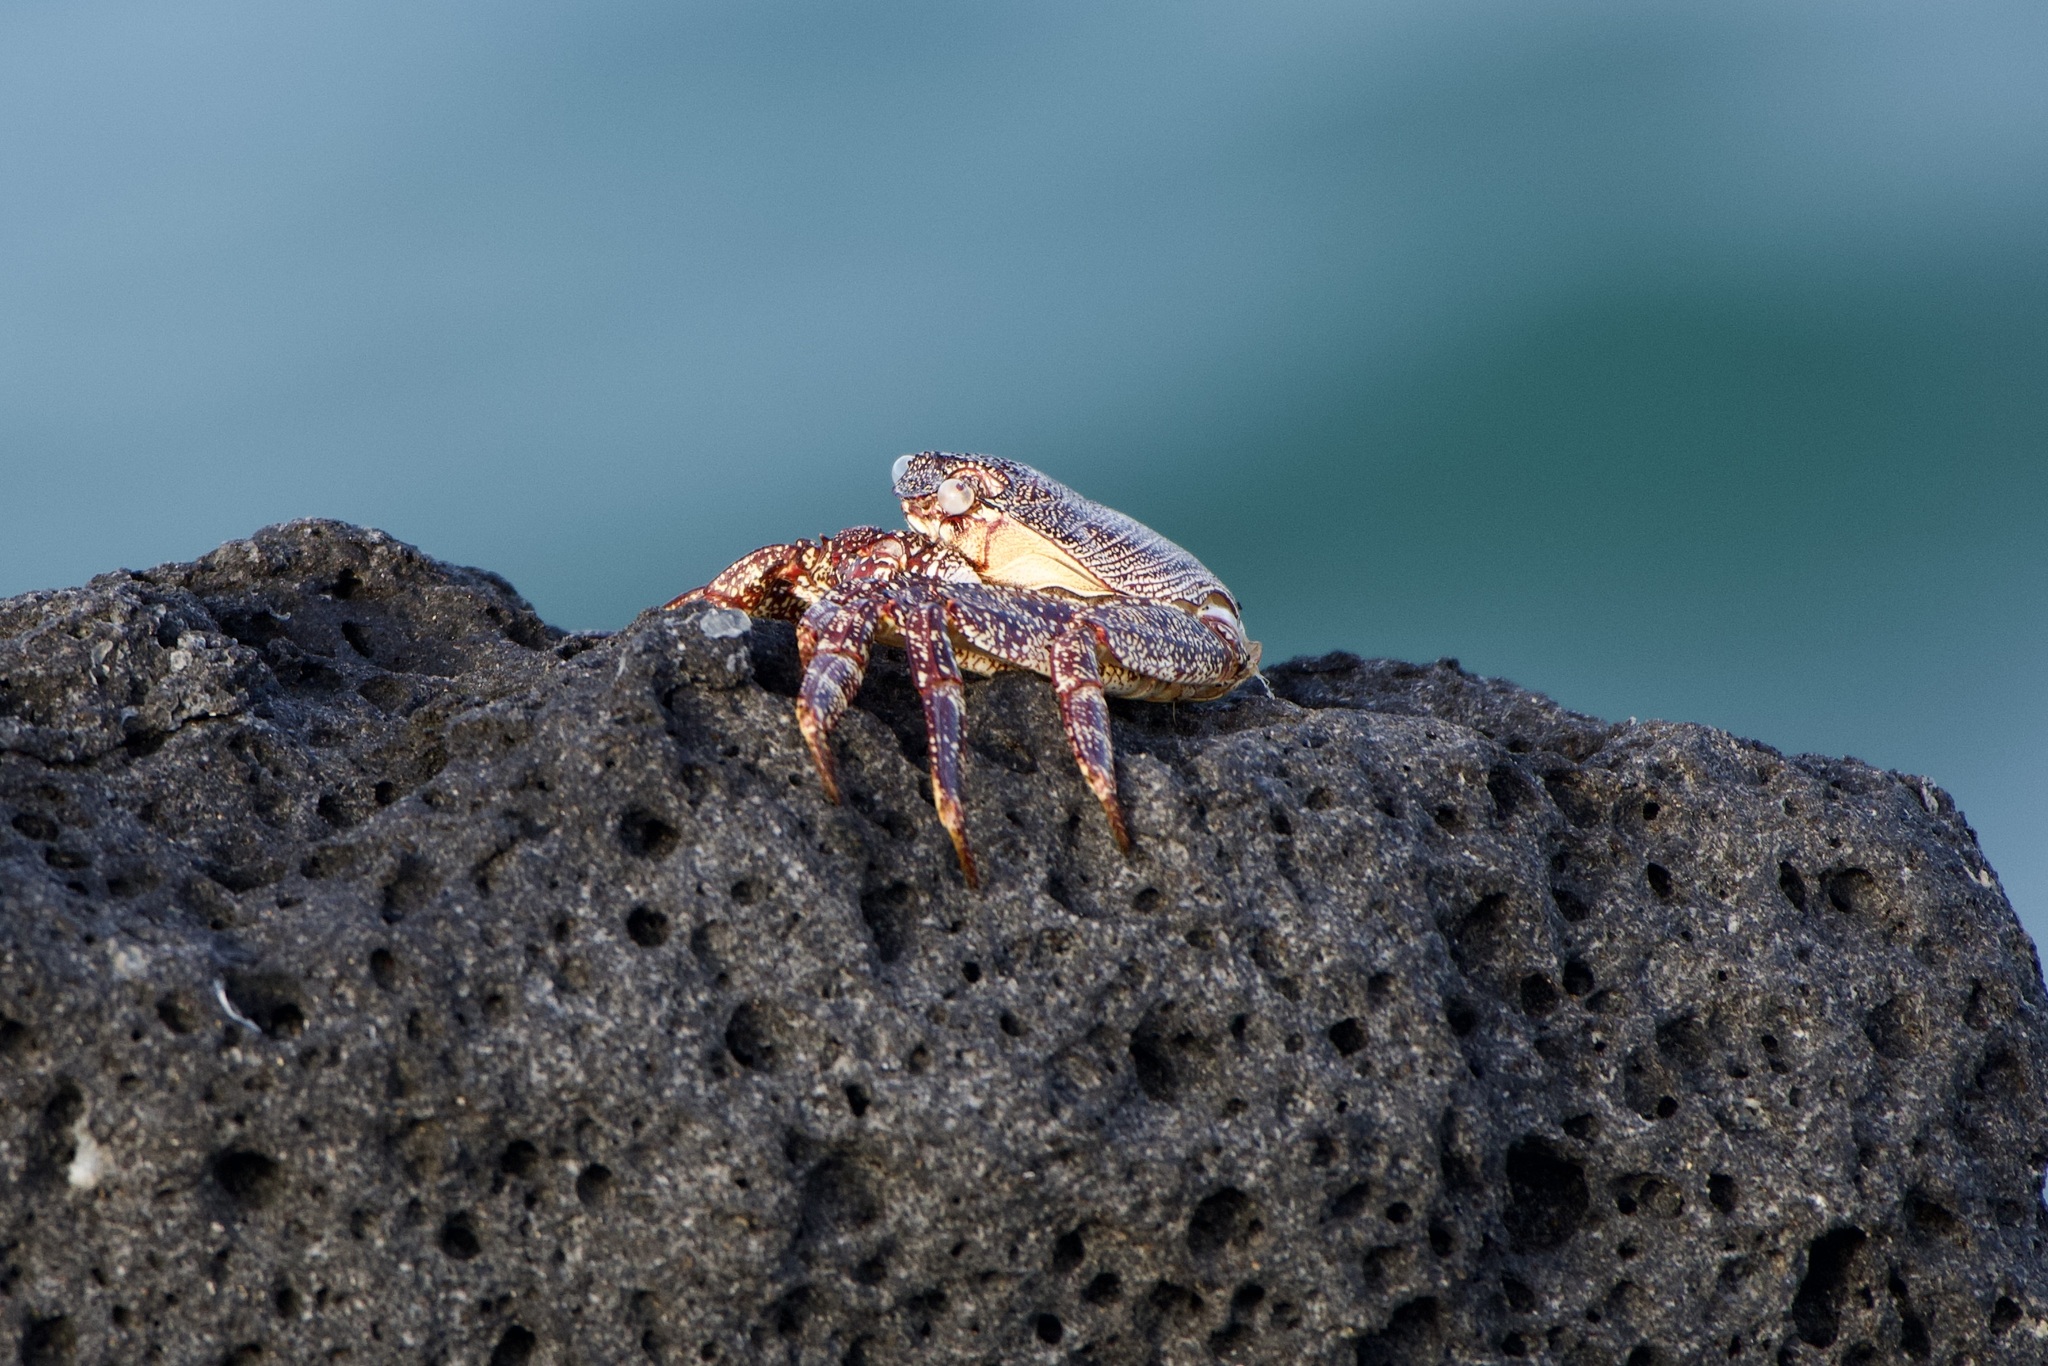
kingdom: Animalia
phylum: Arthropoda
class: Malacostraca
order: Decapoda
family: Grapsidae
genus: Grapsus
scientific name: Grapsus adscensionis
